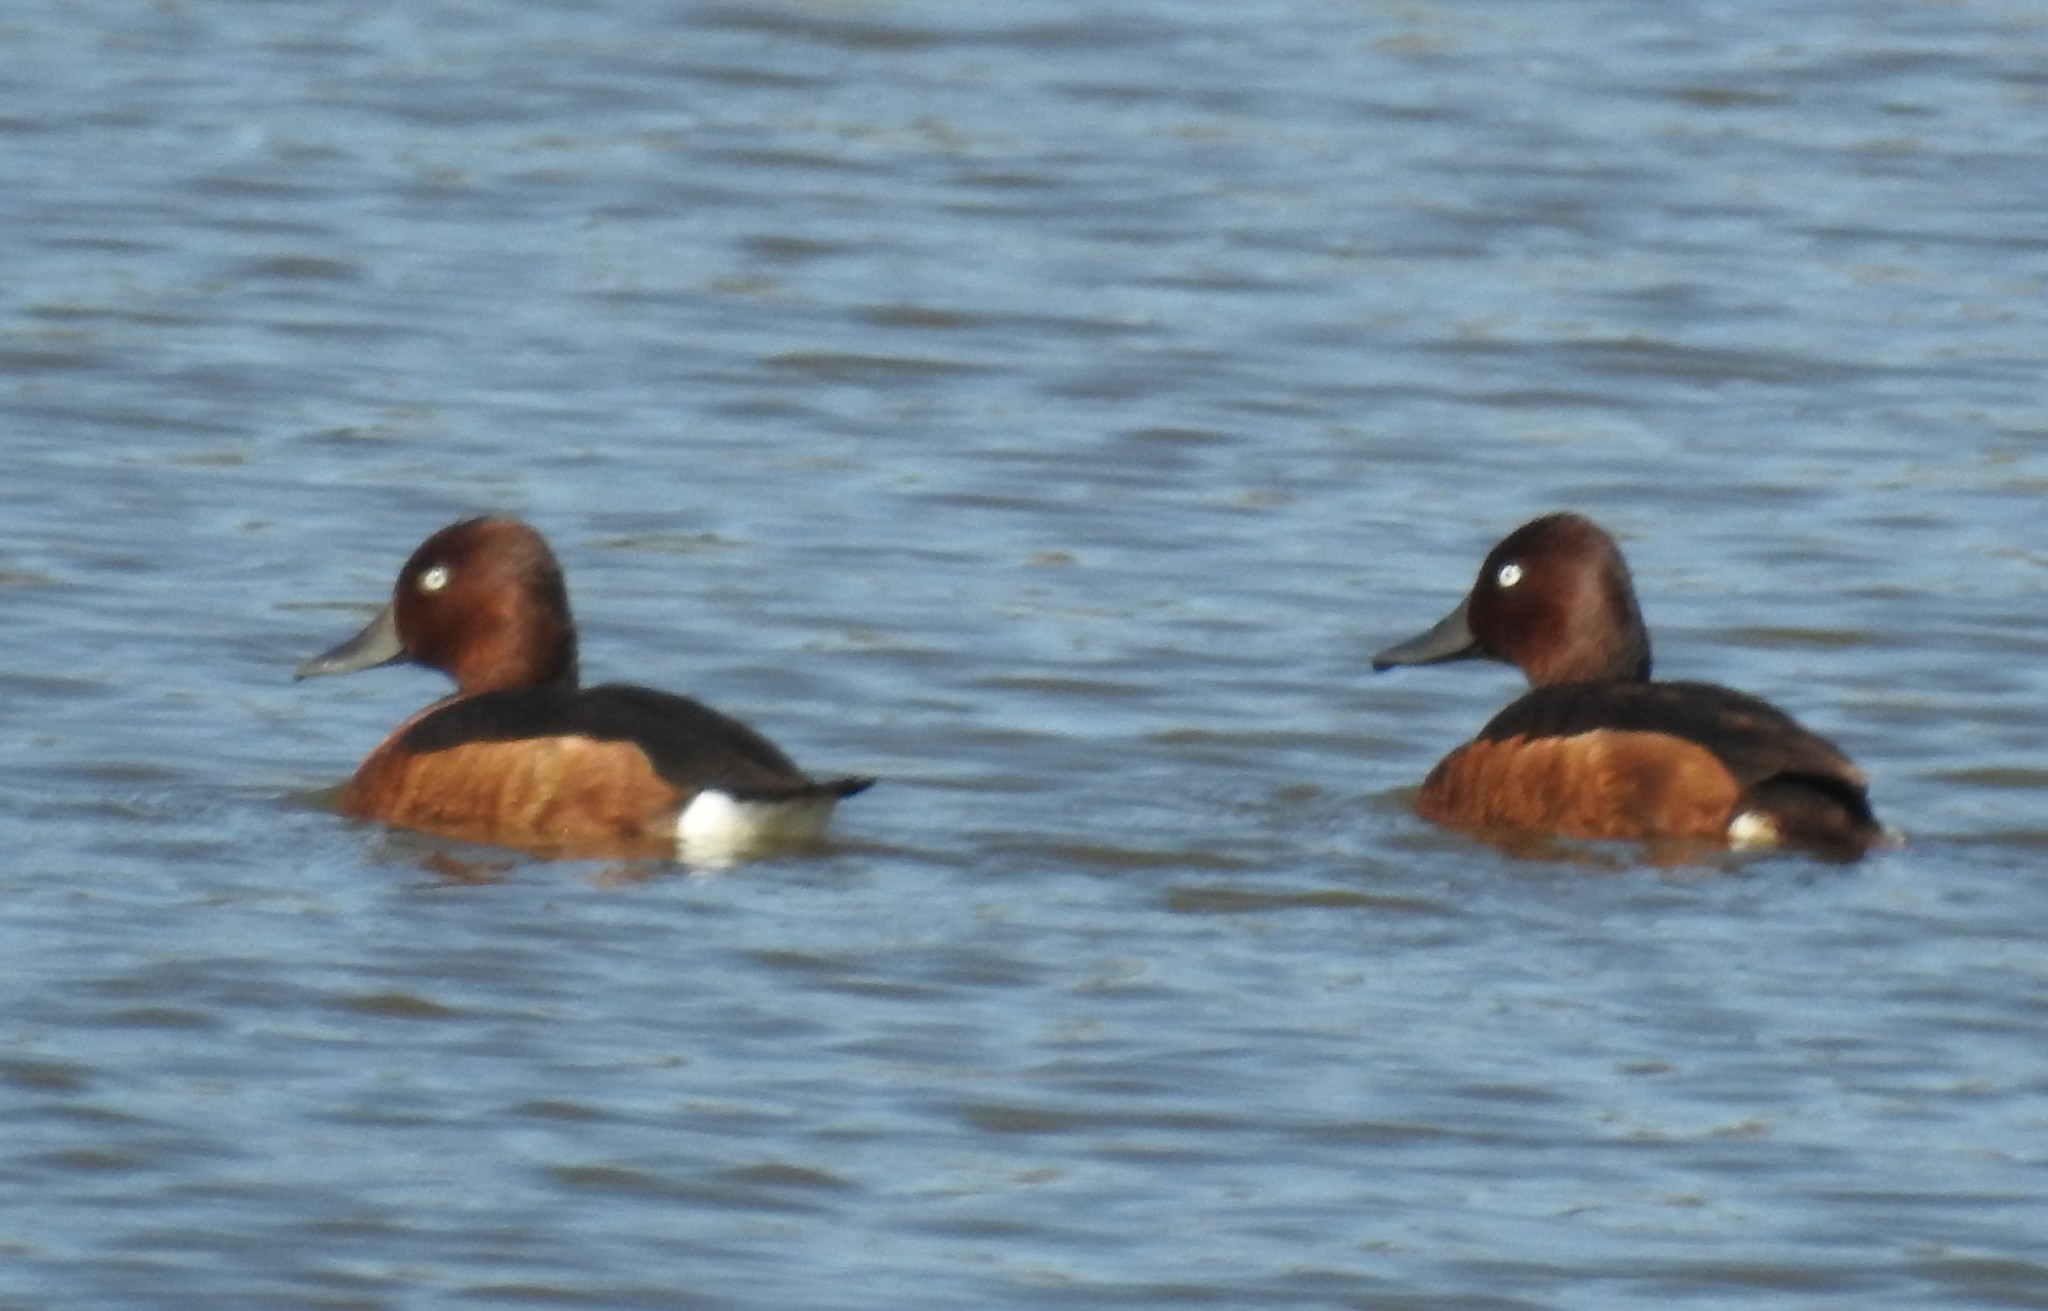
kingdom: Animalia
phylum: Chordata
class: Aves
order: Anseriformes
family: Anatidae
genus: Aythya
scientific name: Aythya nyroca
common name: Ferruginous duck
